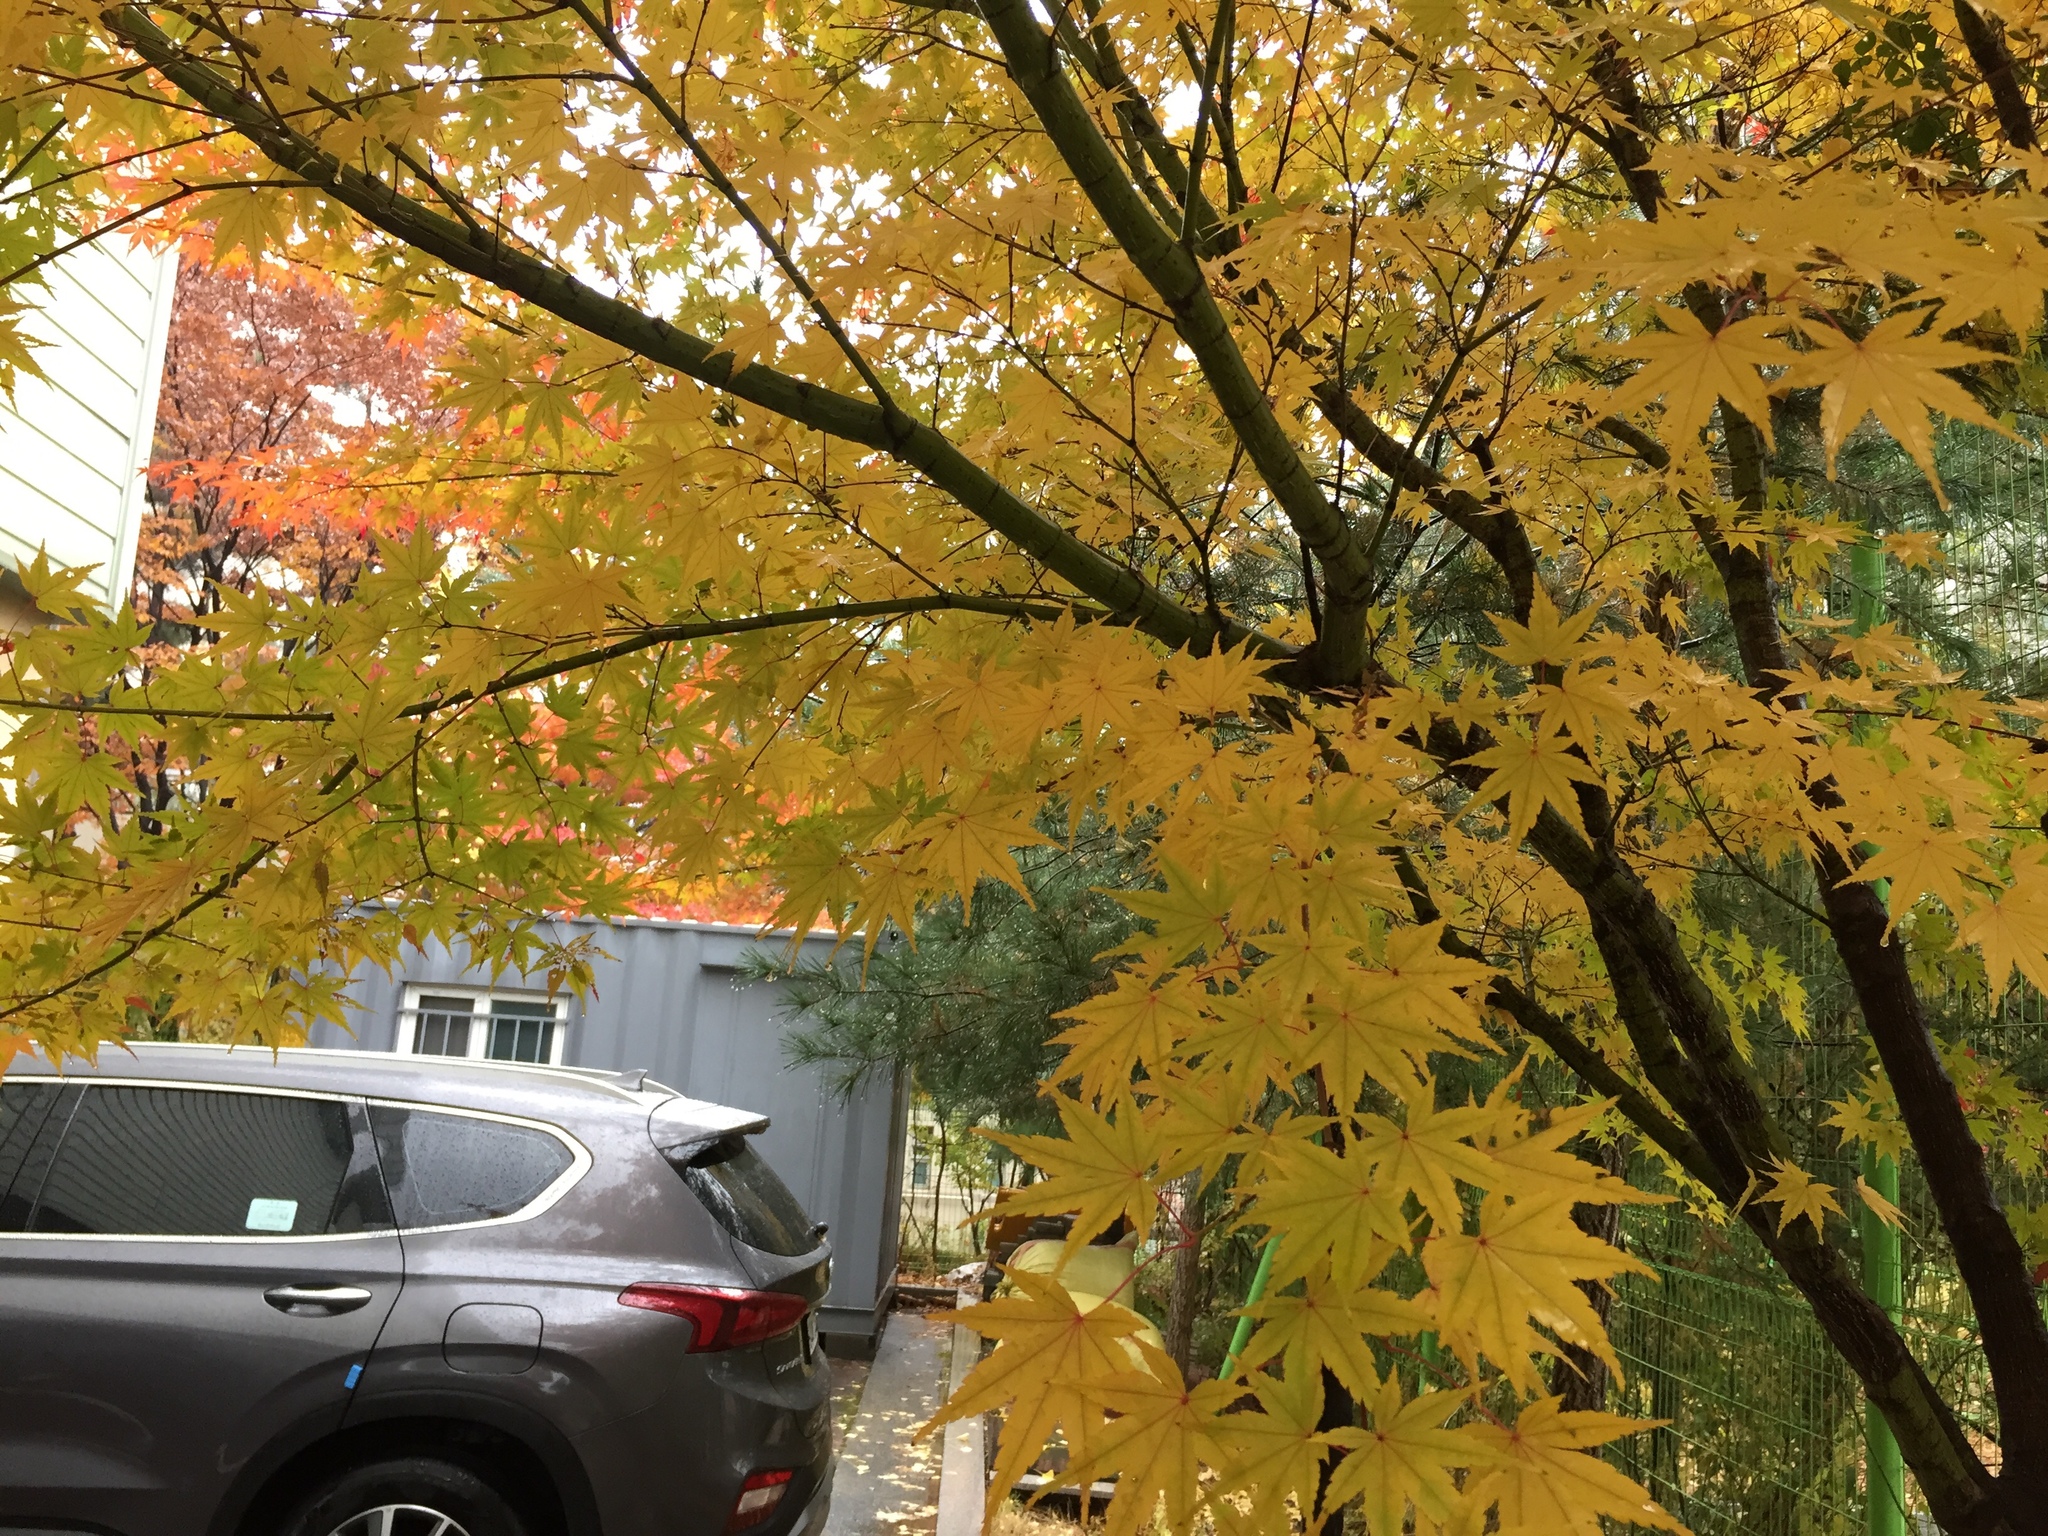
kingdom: Plantae
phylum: Tracheophyta
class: Magnoliopsida
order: Sapindales
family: Sapindaceae
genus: Acer
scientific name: Acer palmatum
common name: Japanese maple
